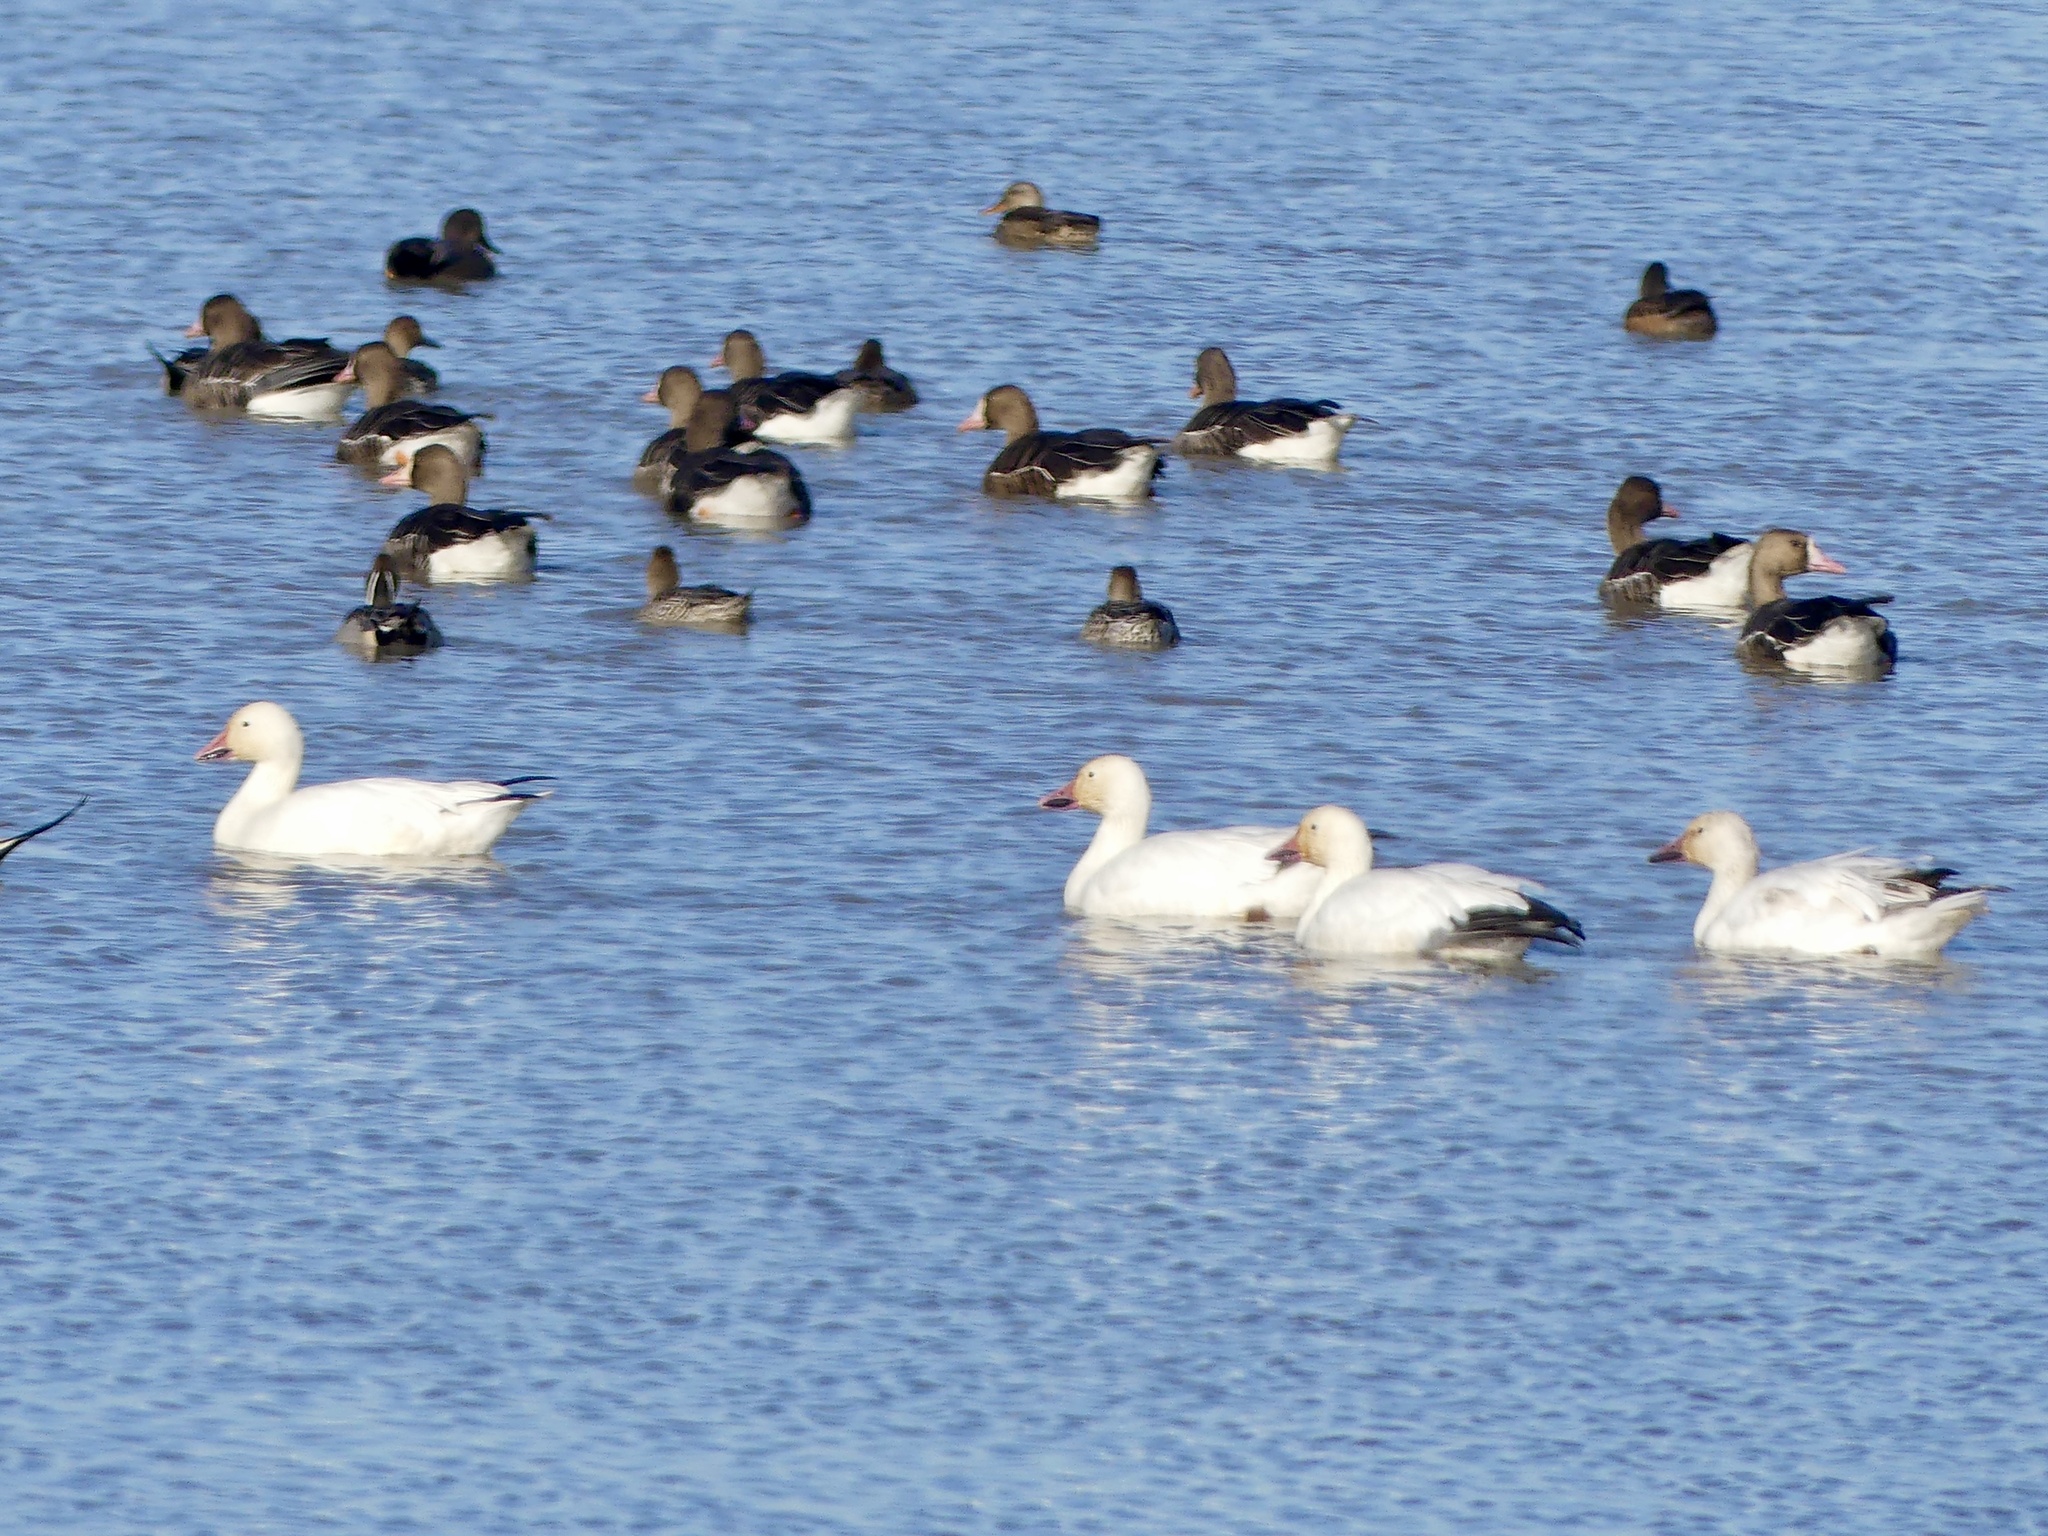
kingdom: Animalia
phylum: Chordata
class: Aves
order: Anseriformes
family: Anatidae
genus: Anser
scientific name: Anser caerulescens
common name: Snow goose
